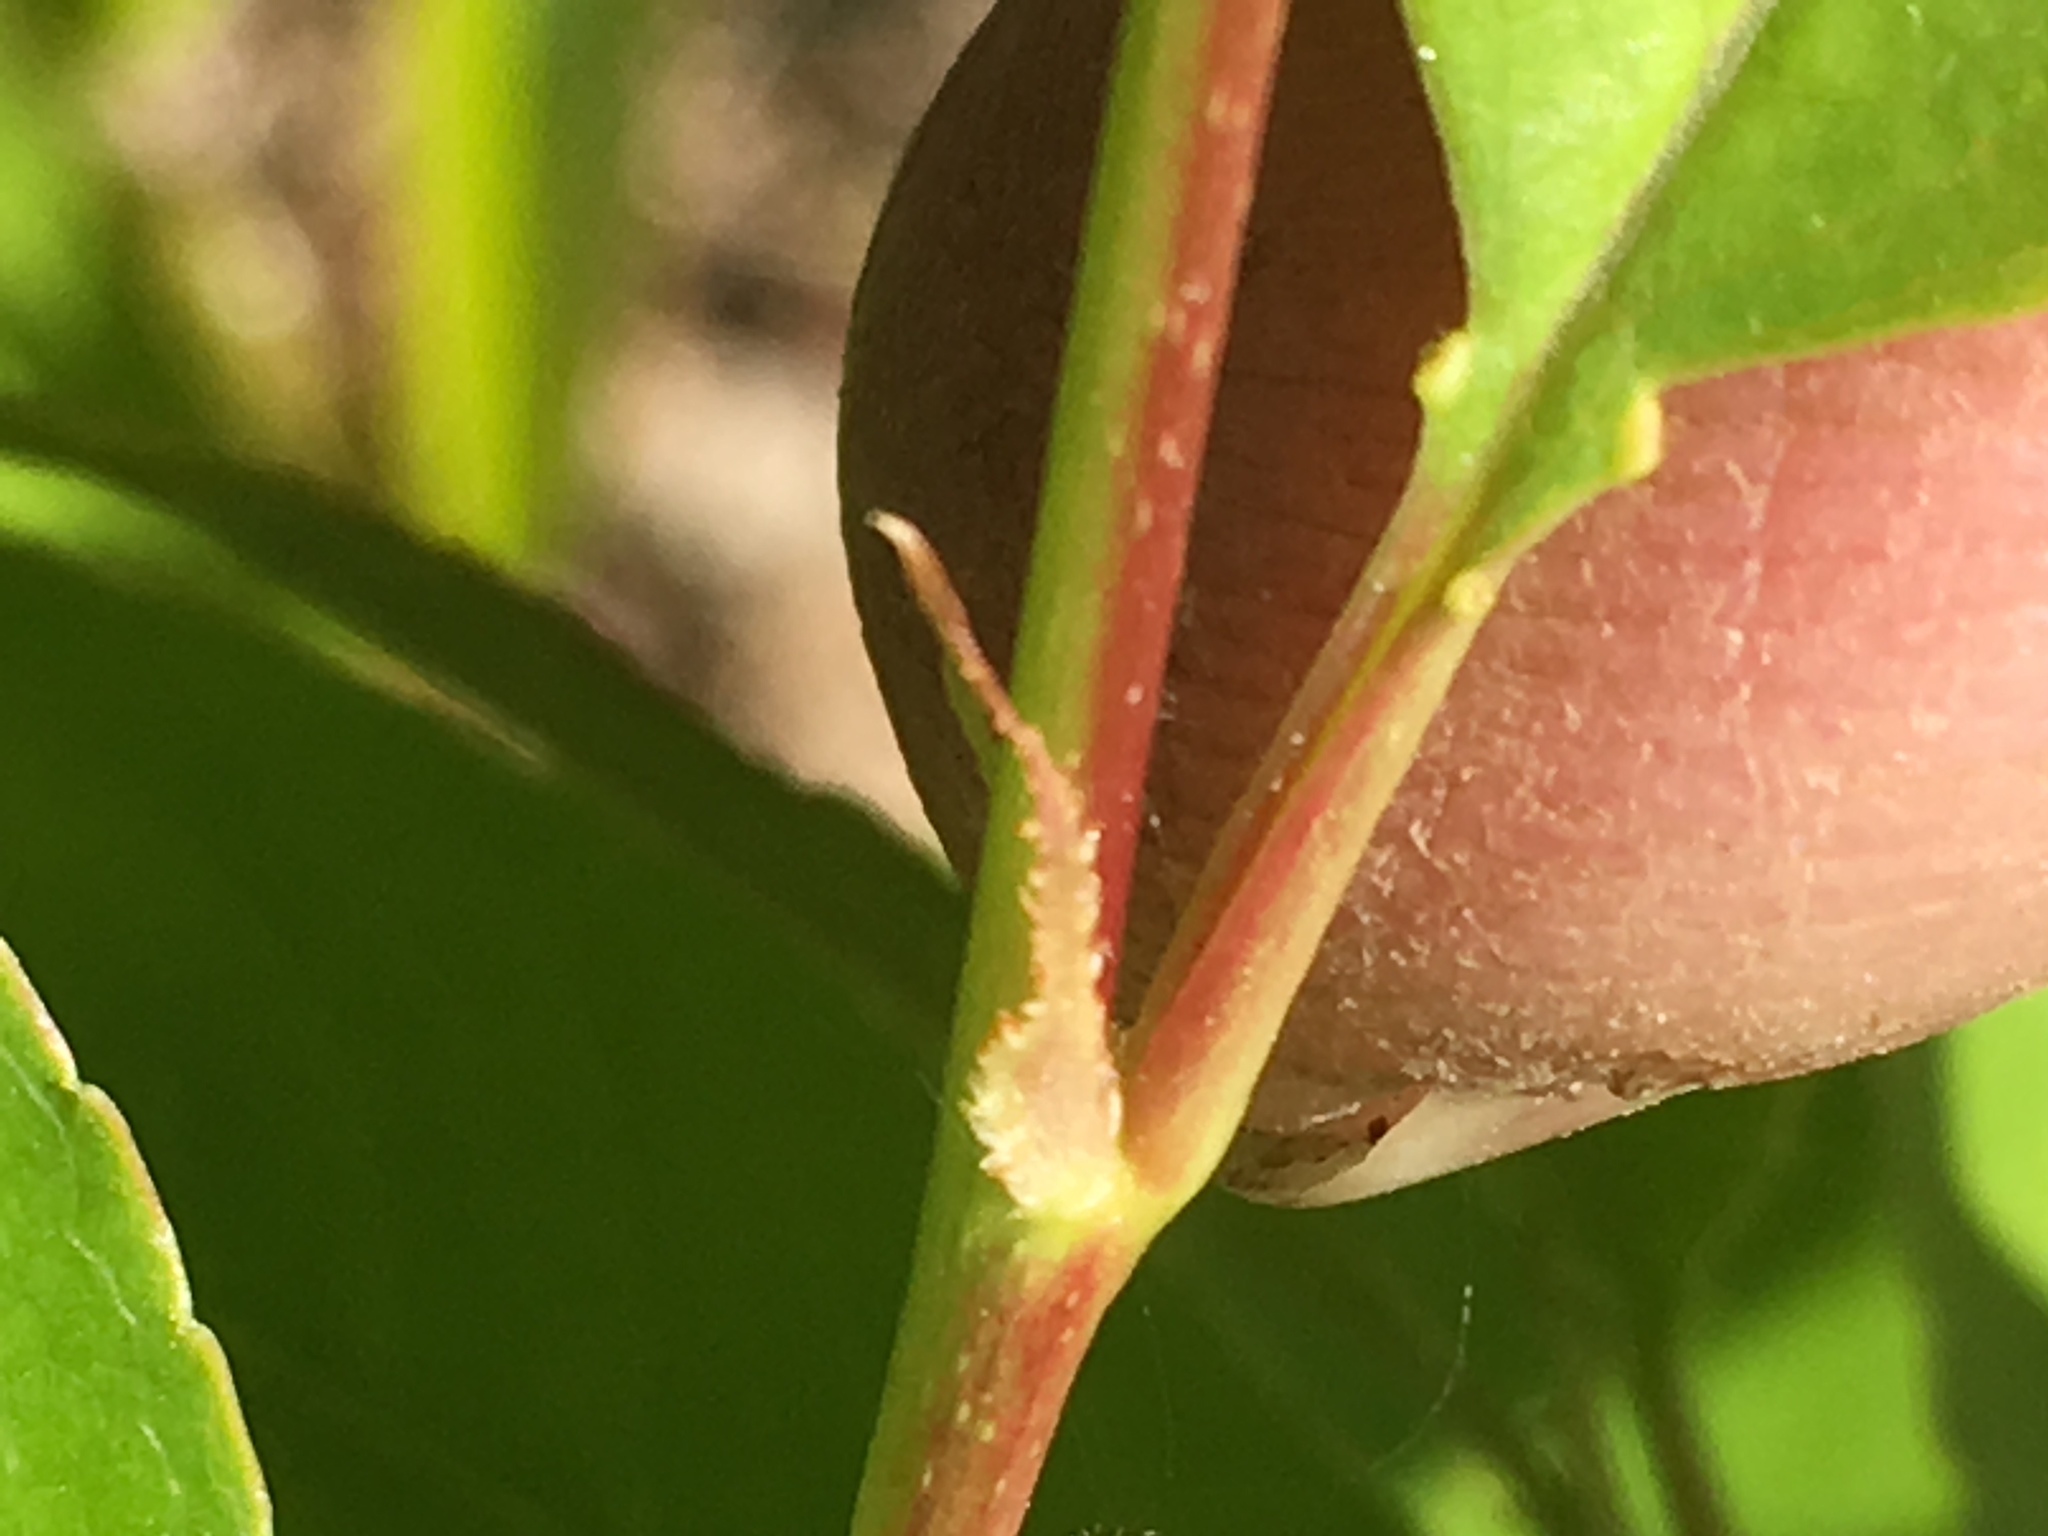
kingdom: Plantae
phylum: Tracheophyta
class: Magnoliopsida
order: Rosales
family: Rosaceae
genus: Prunus
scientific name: Prunus serotina
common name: Black cherry
